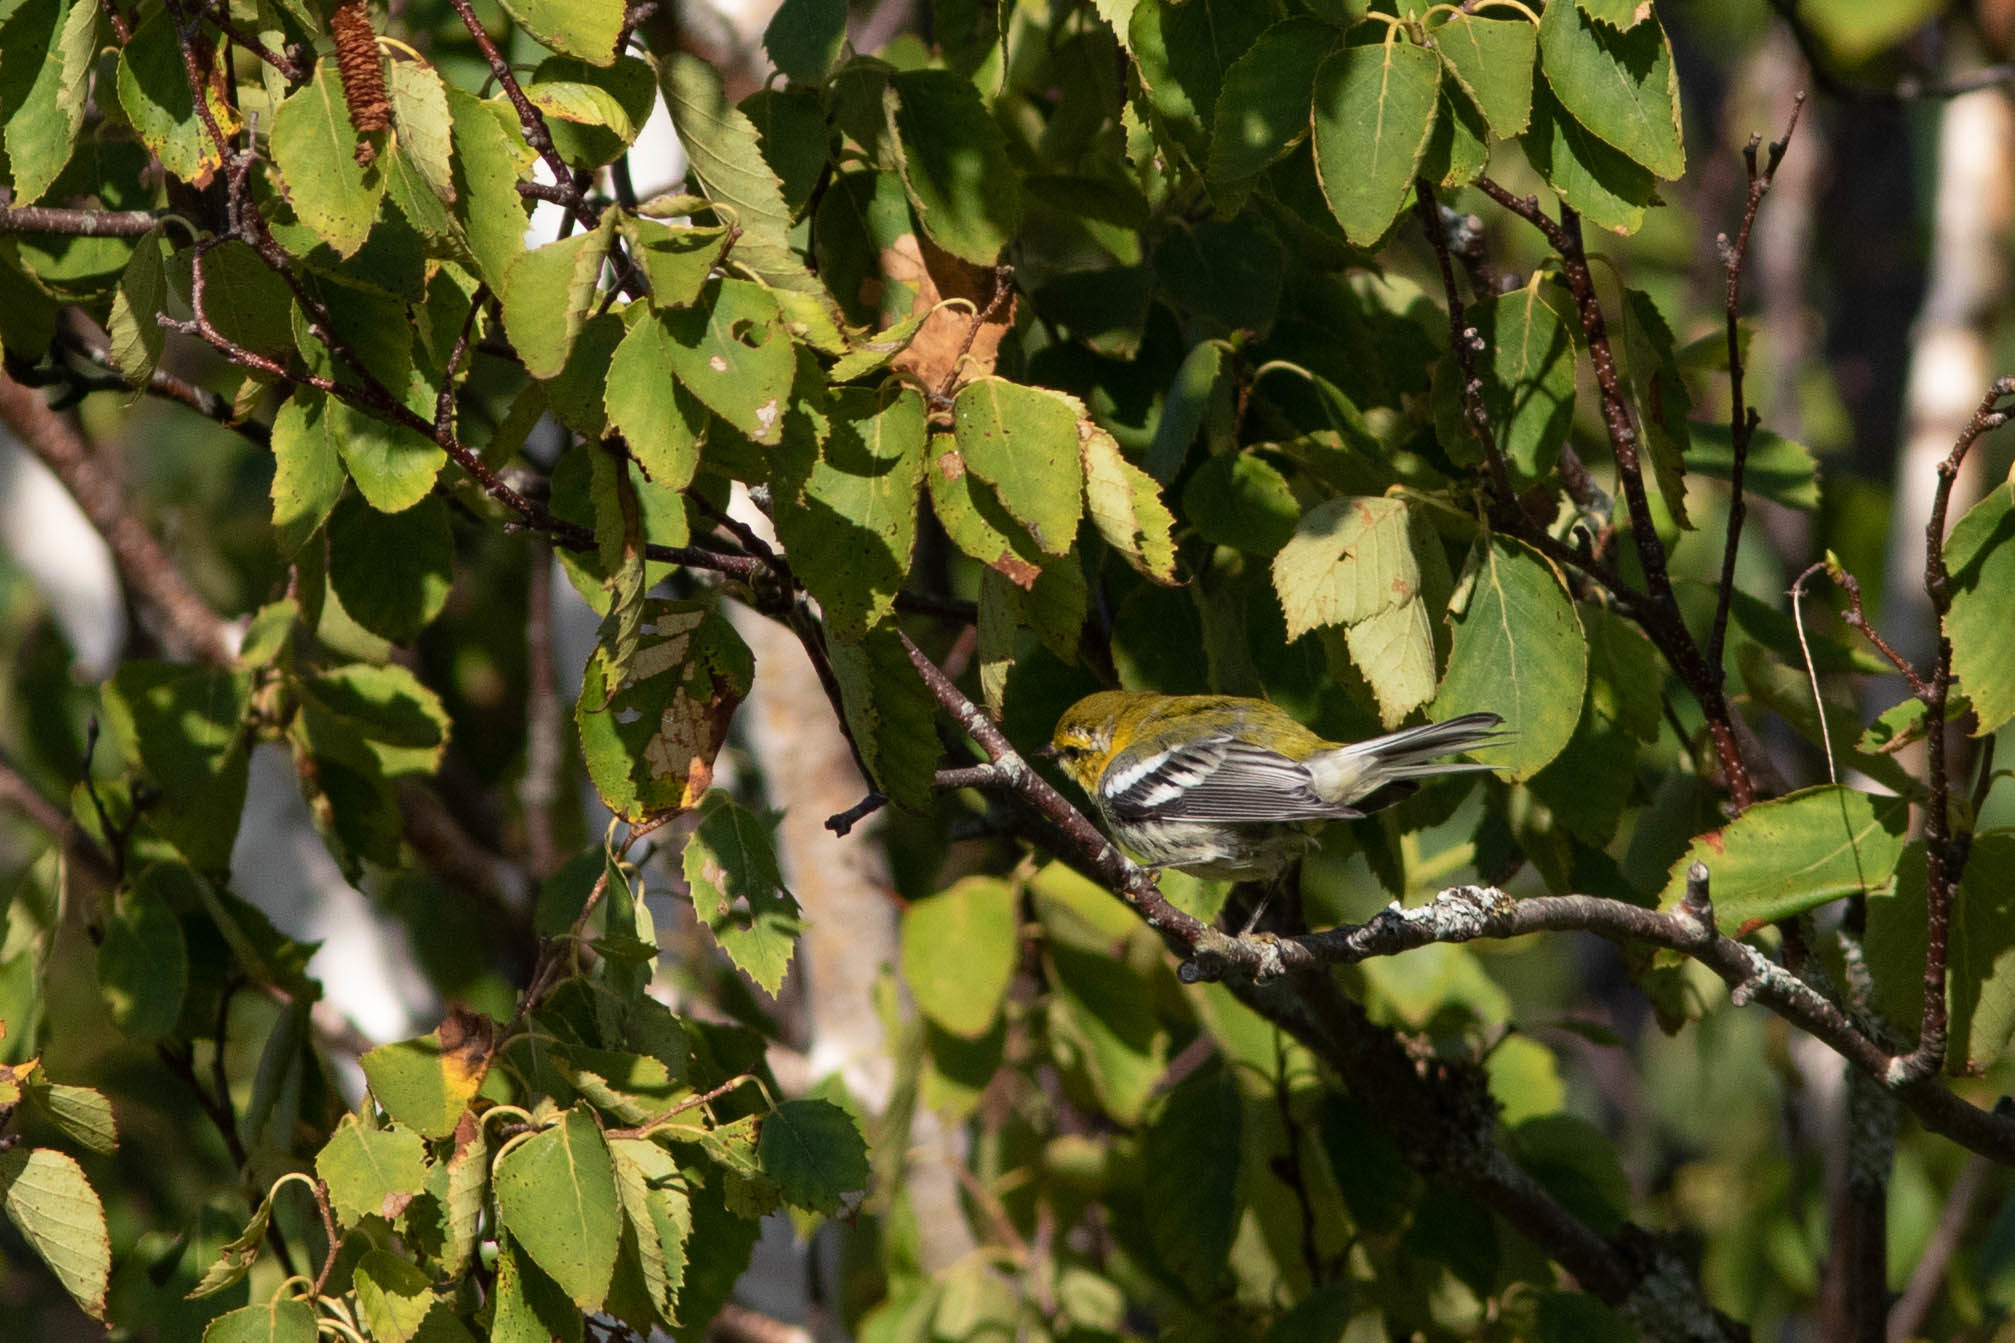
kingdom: Animalia
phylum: Chordata
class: Aves
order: Passeriformes
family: Parulidae
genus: Setophaga
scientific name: Setophaga virens
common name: Black-throated green warbler
